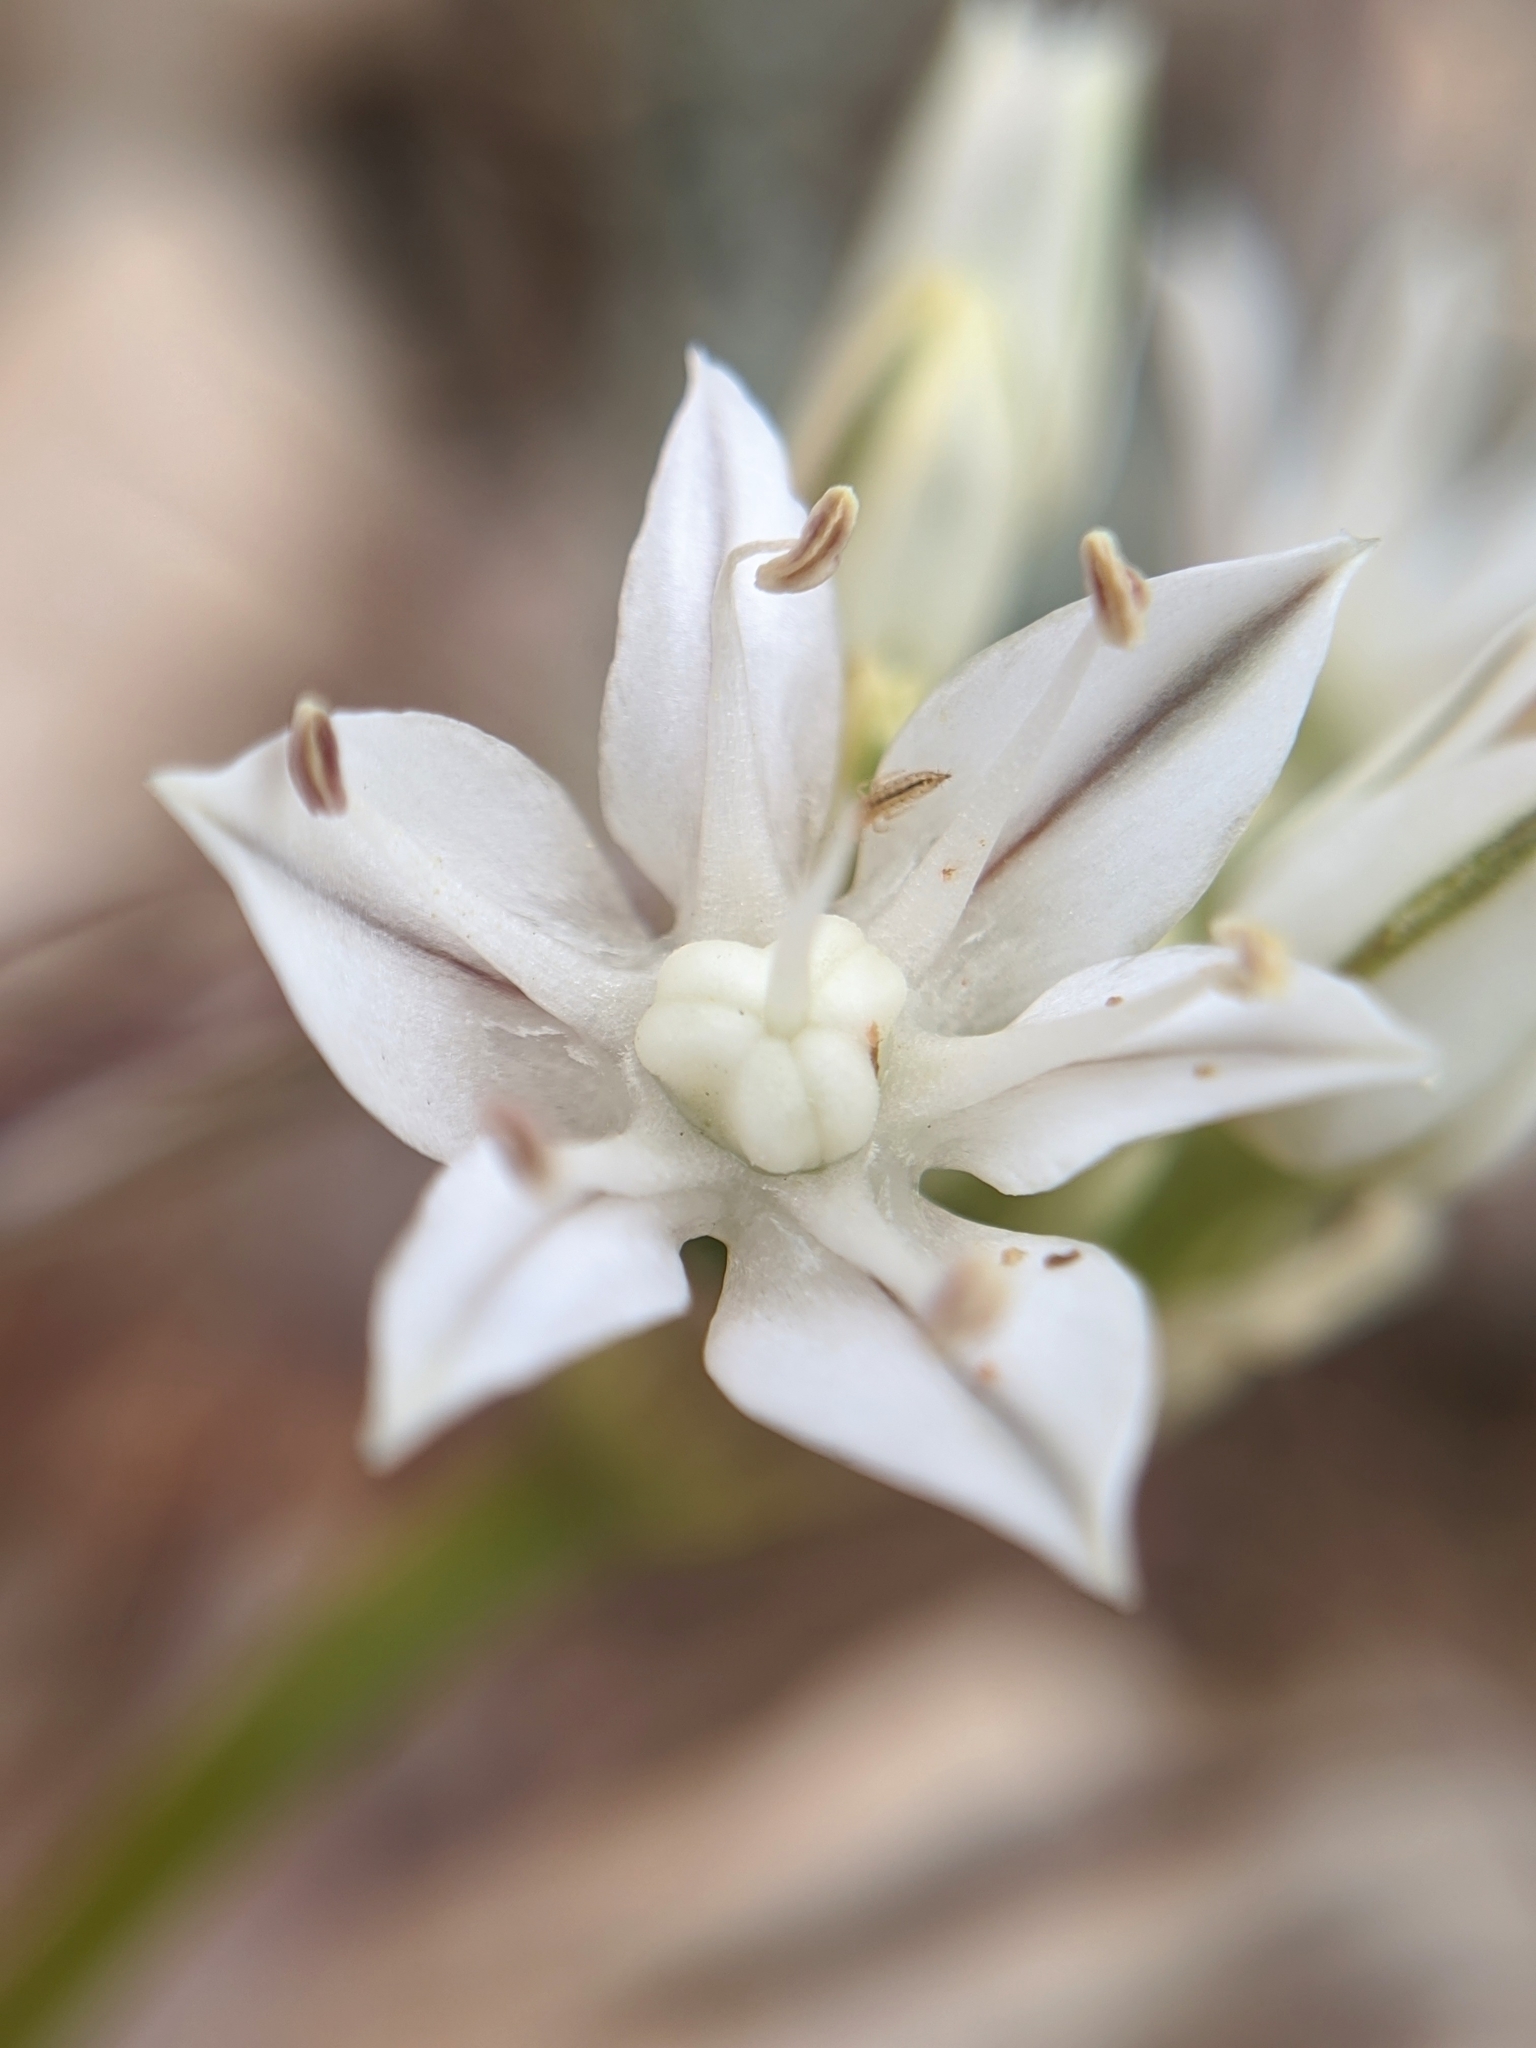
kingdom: Plantae
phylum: Tracheophyta
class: Liliopsida
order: Asparagales
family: Amaryllidaceae
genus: Allium
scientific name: Allium lacunosum
